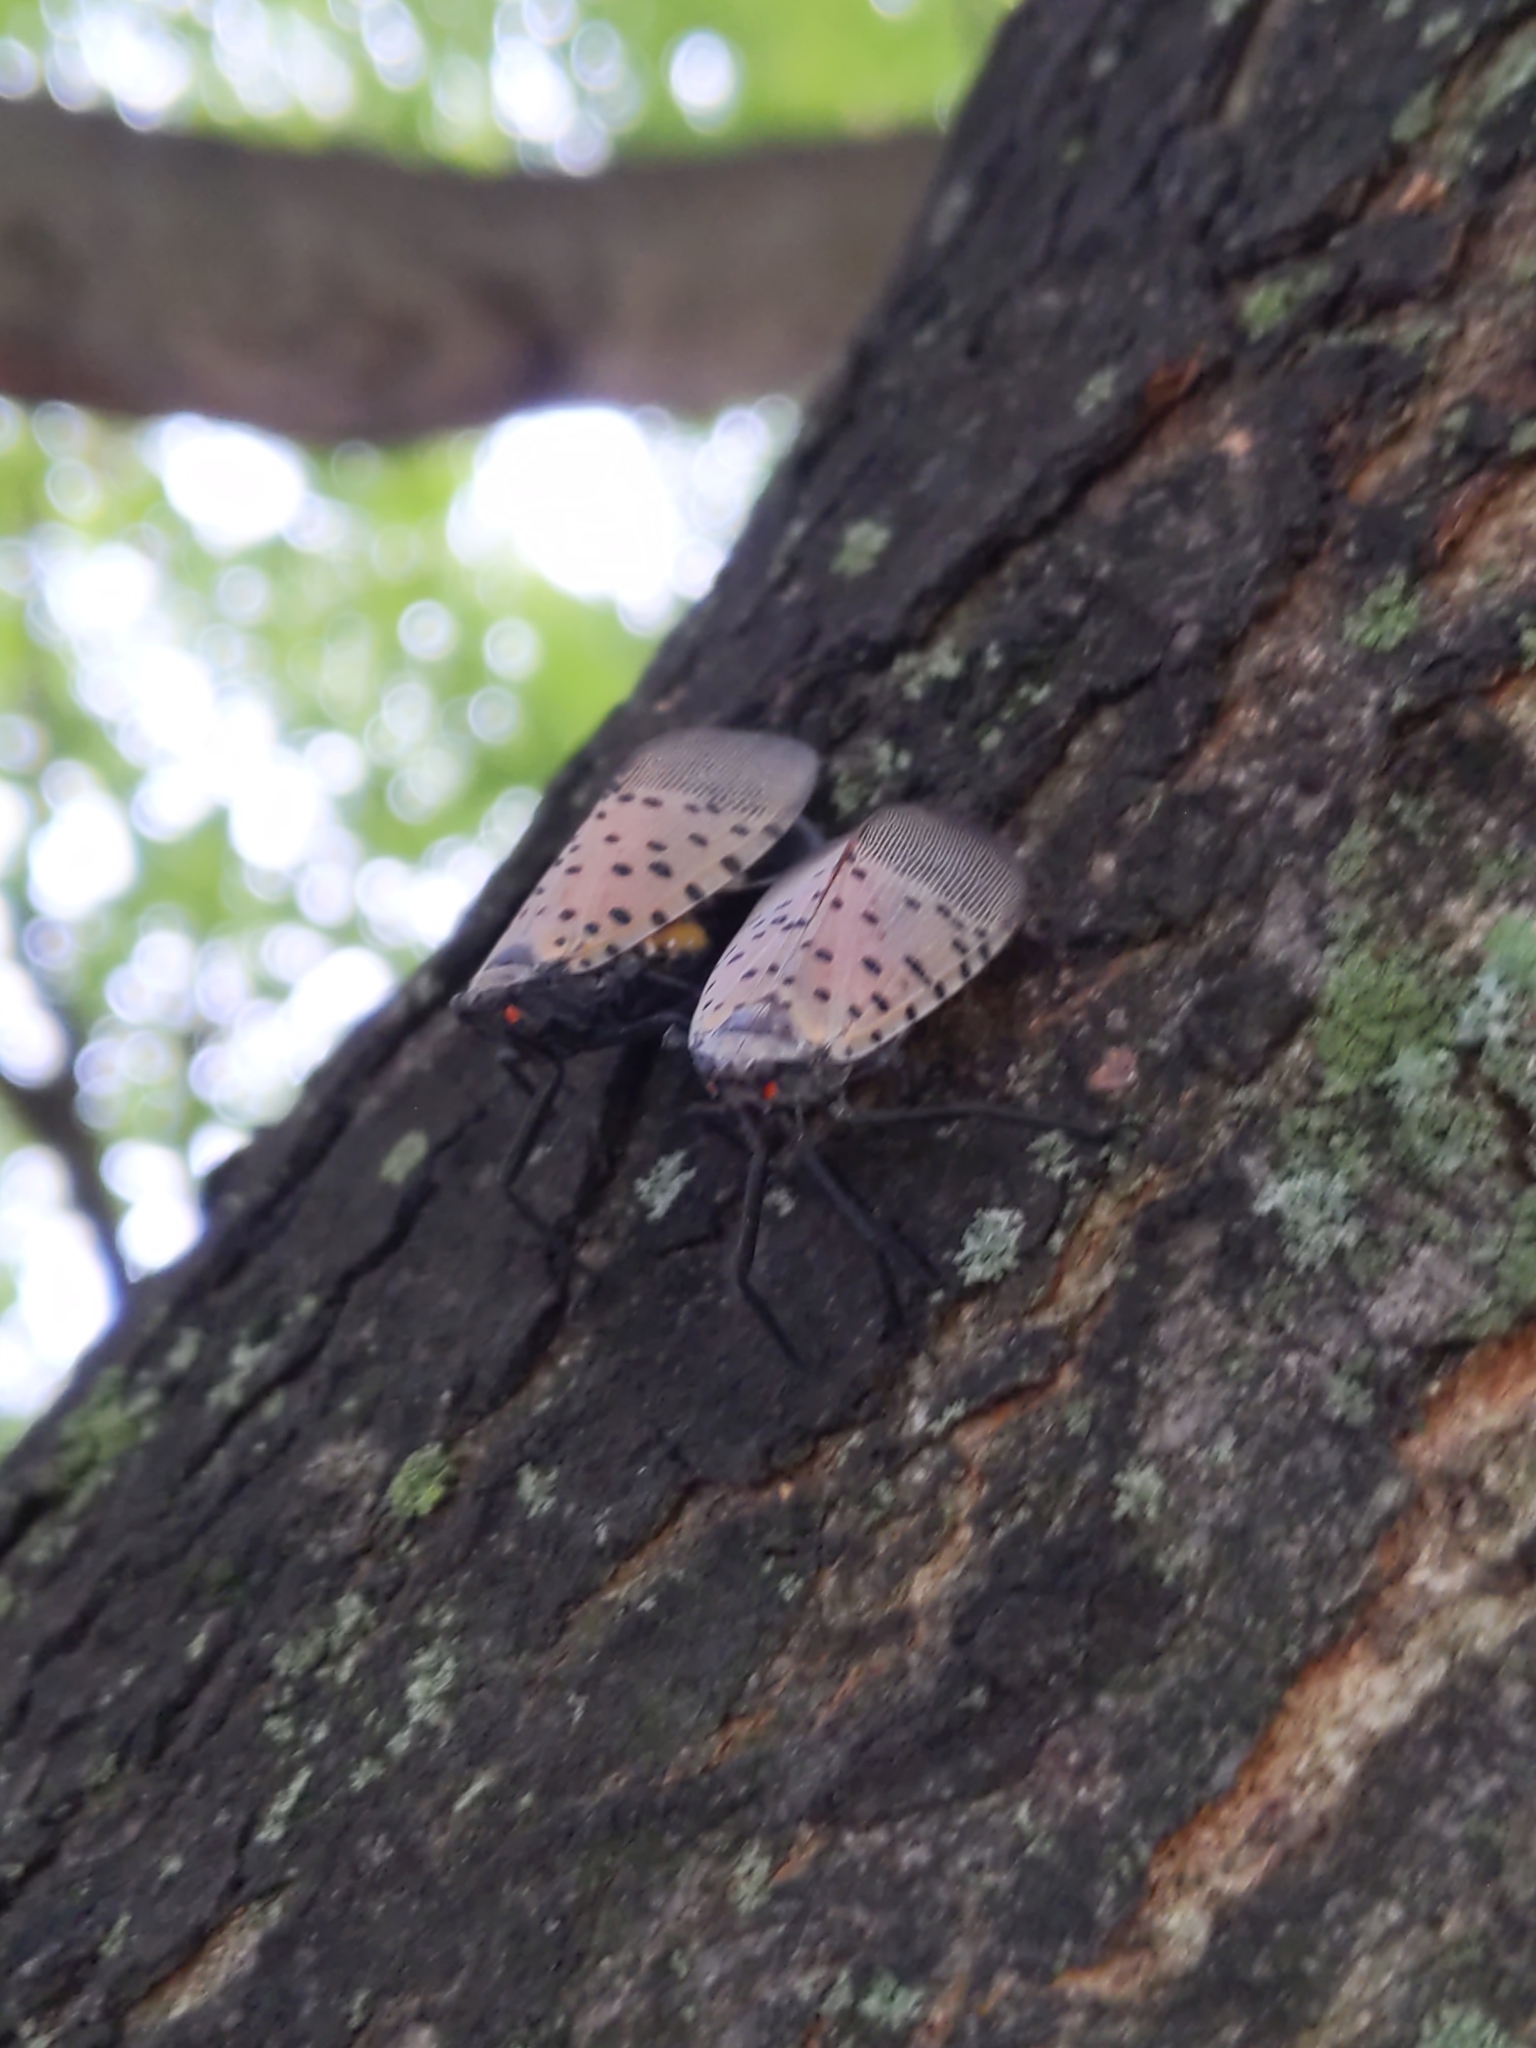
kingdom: Animalia
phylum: Arthropoda
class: Insecta
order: Hemiptera
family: Fulgoridae
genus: Lycorma
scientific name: Lycorma delicatula
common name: Spotted lanternfly
